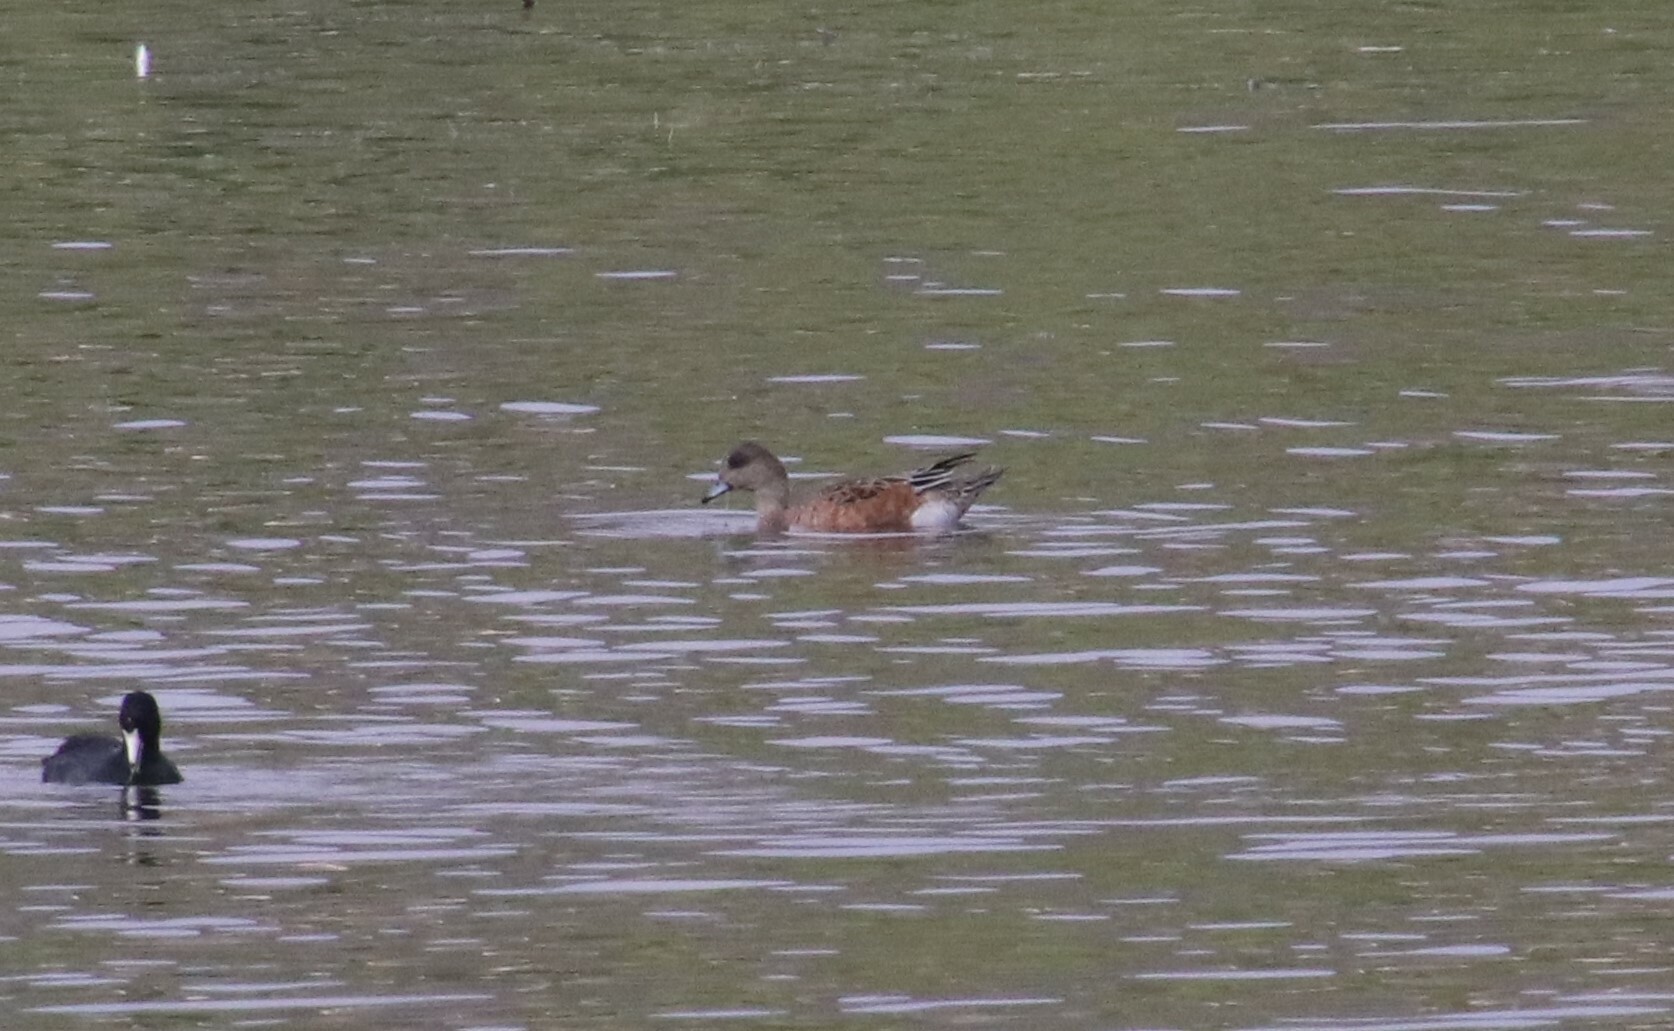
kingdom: Animalia
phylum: Chordata
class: Aves
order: Anseriformes
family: Anatidae
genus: Mareca
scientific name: Mareca americana
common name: American wigeon
